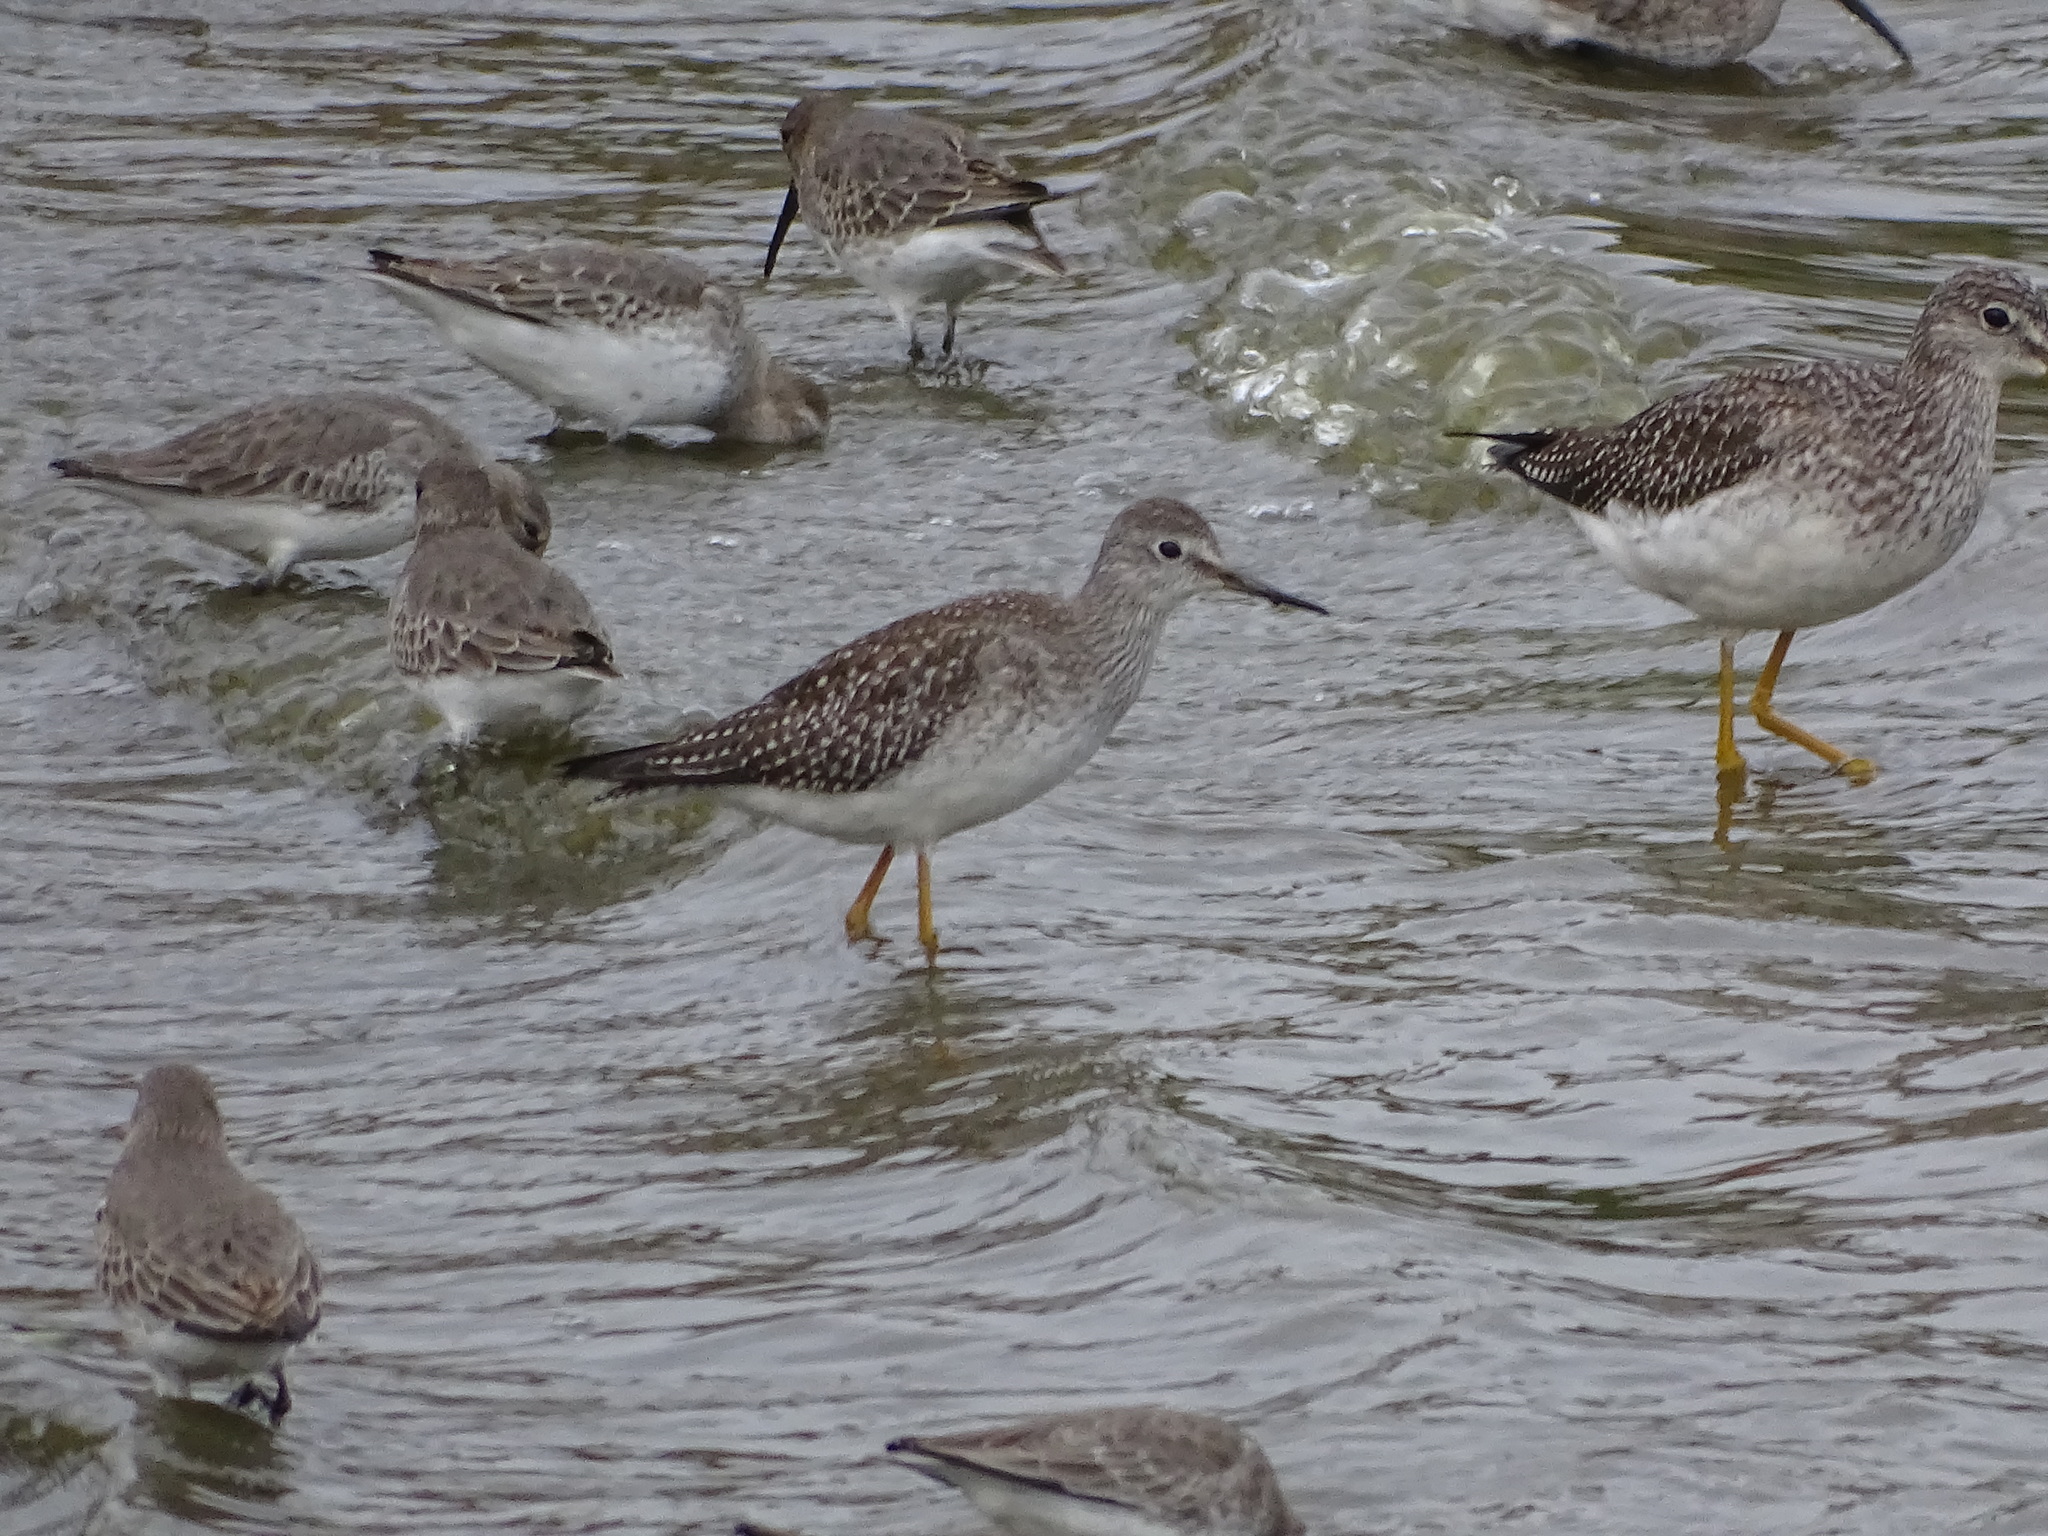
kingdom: Animalia
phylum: Chordata
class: Aves
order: Charadriiformes
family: Scolopacidae
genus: Tringa
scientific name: Tringa flavipes
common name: Lesser yellowlegs
